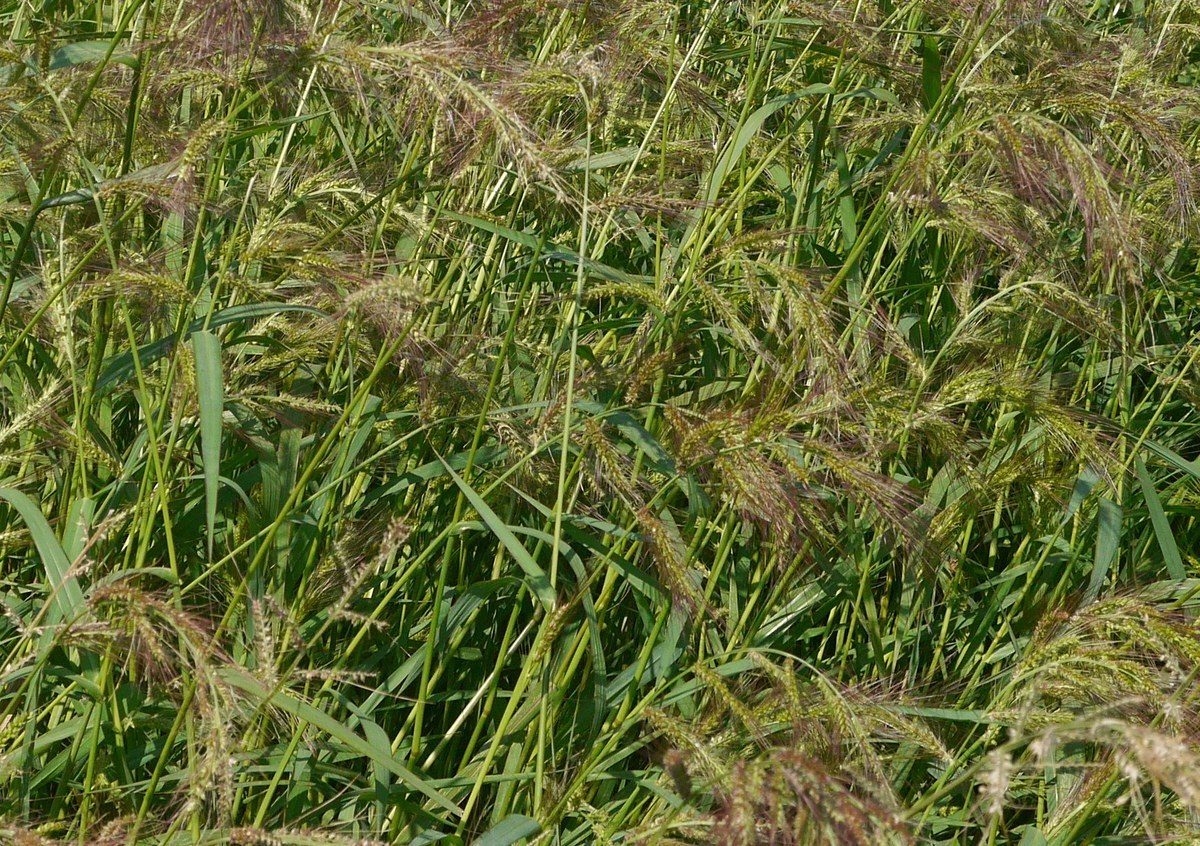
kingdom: Plantae
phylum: Tracheophyta
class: Liliopsida
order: Poales
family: Poaceae
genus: Echinochloa
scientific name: Echinochloa crus-galli
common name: Cockspur
